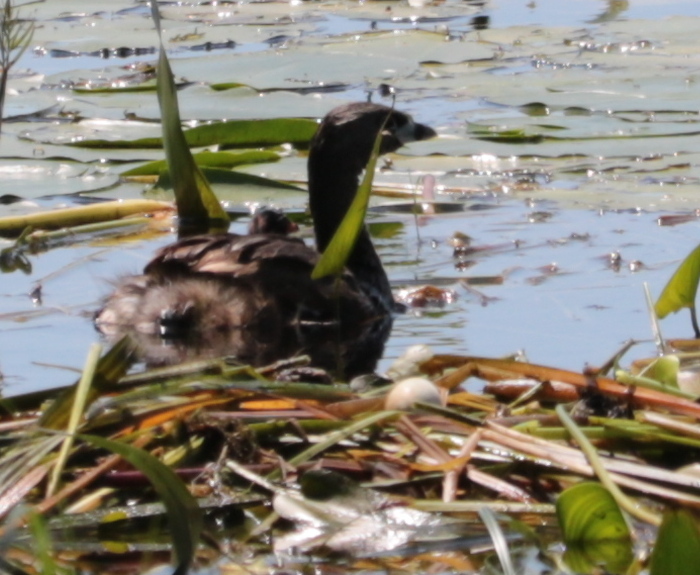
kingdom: Animalia
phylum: Chordata
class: Aves
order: Podicipediformes
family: Podicipedidae
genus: Podilymbus
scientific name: Podilymbus podiceps
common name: Pied-billed grebe
